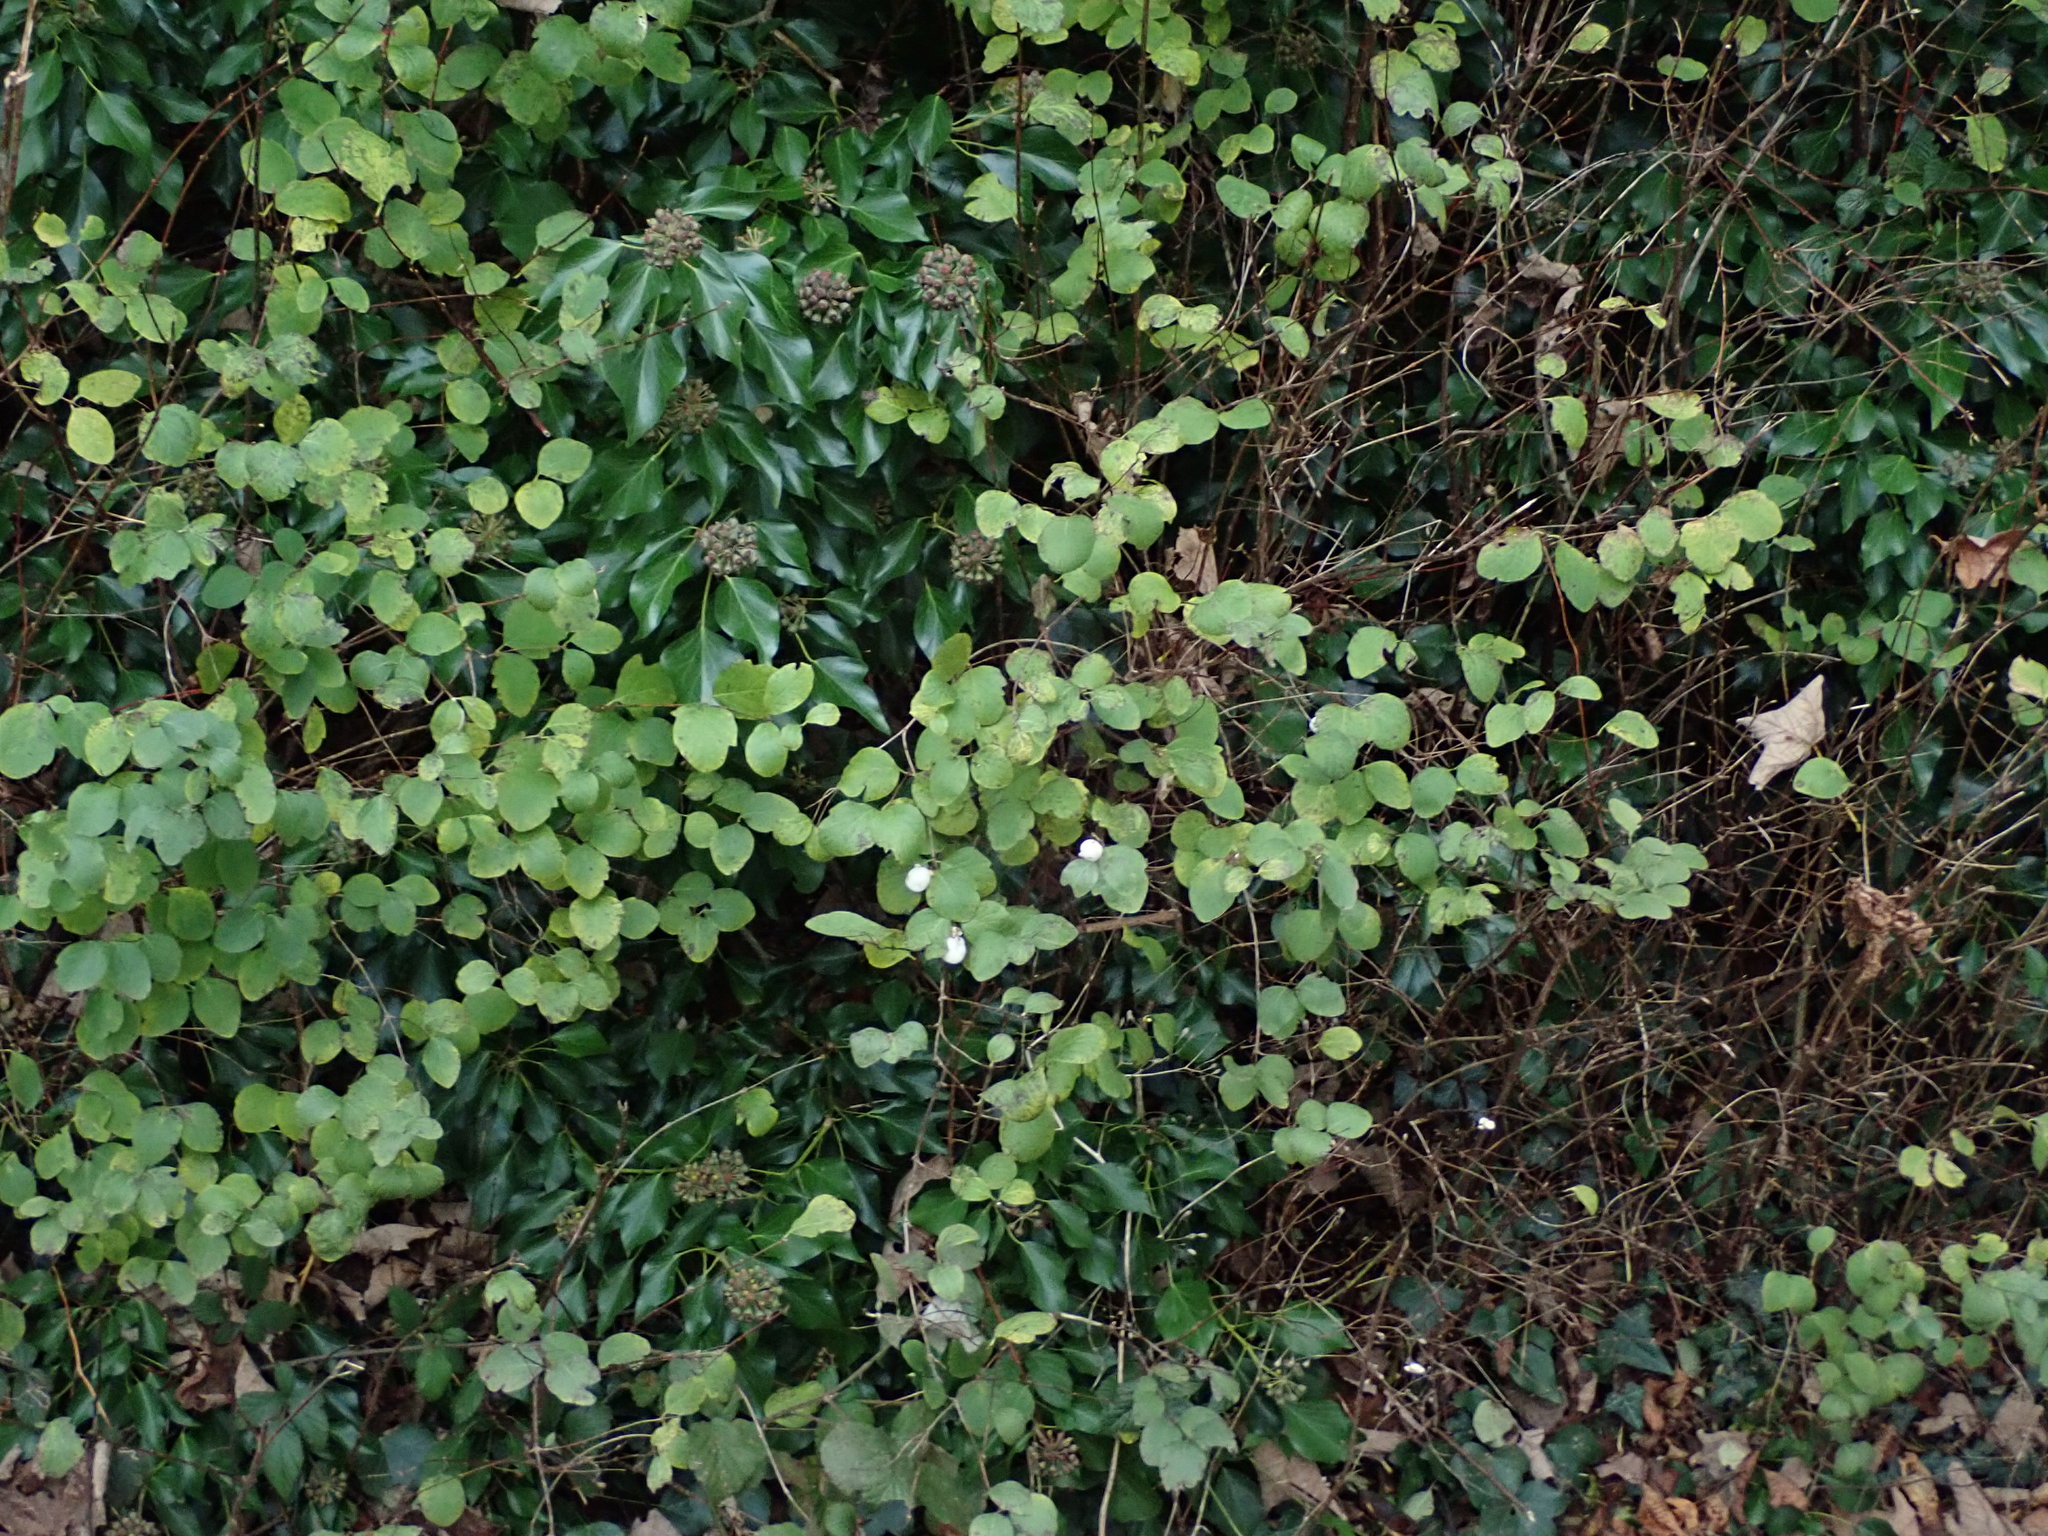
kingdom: Plantae
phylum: Tracheophyta
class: Magnoliopsida
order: Dipsacales
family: Caprifoliaceae
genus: Symphoricarpos
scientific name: Symphoricarpos albus
